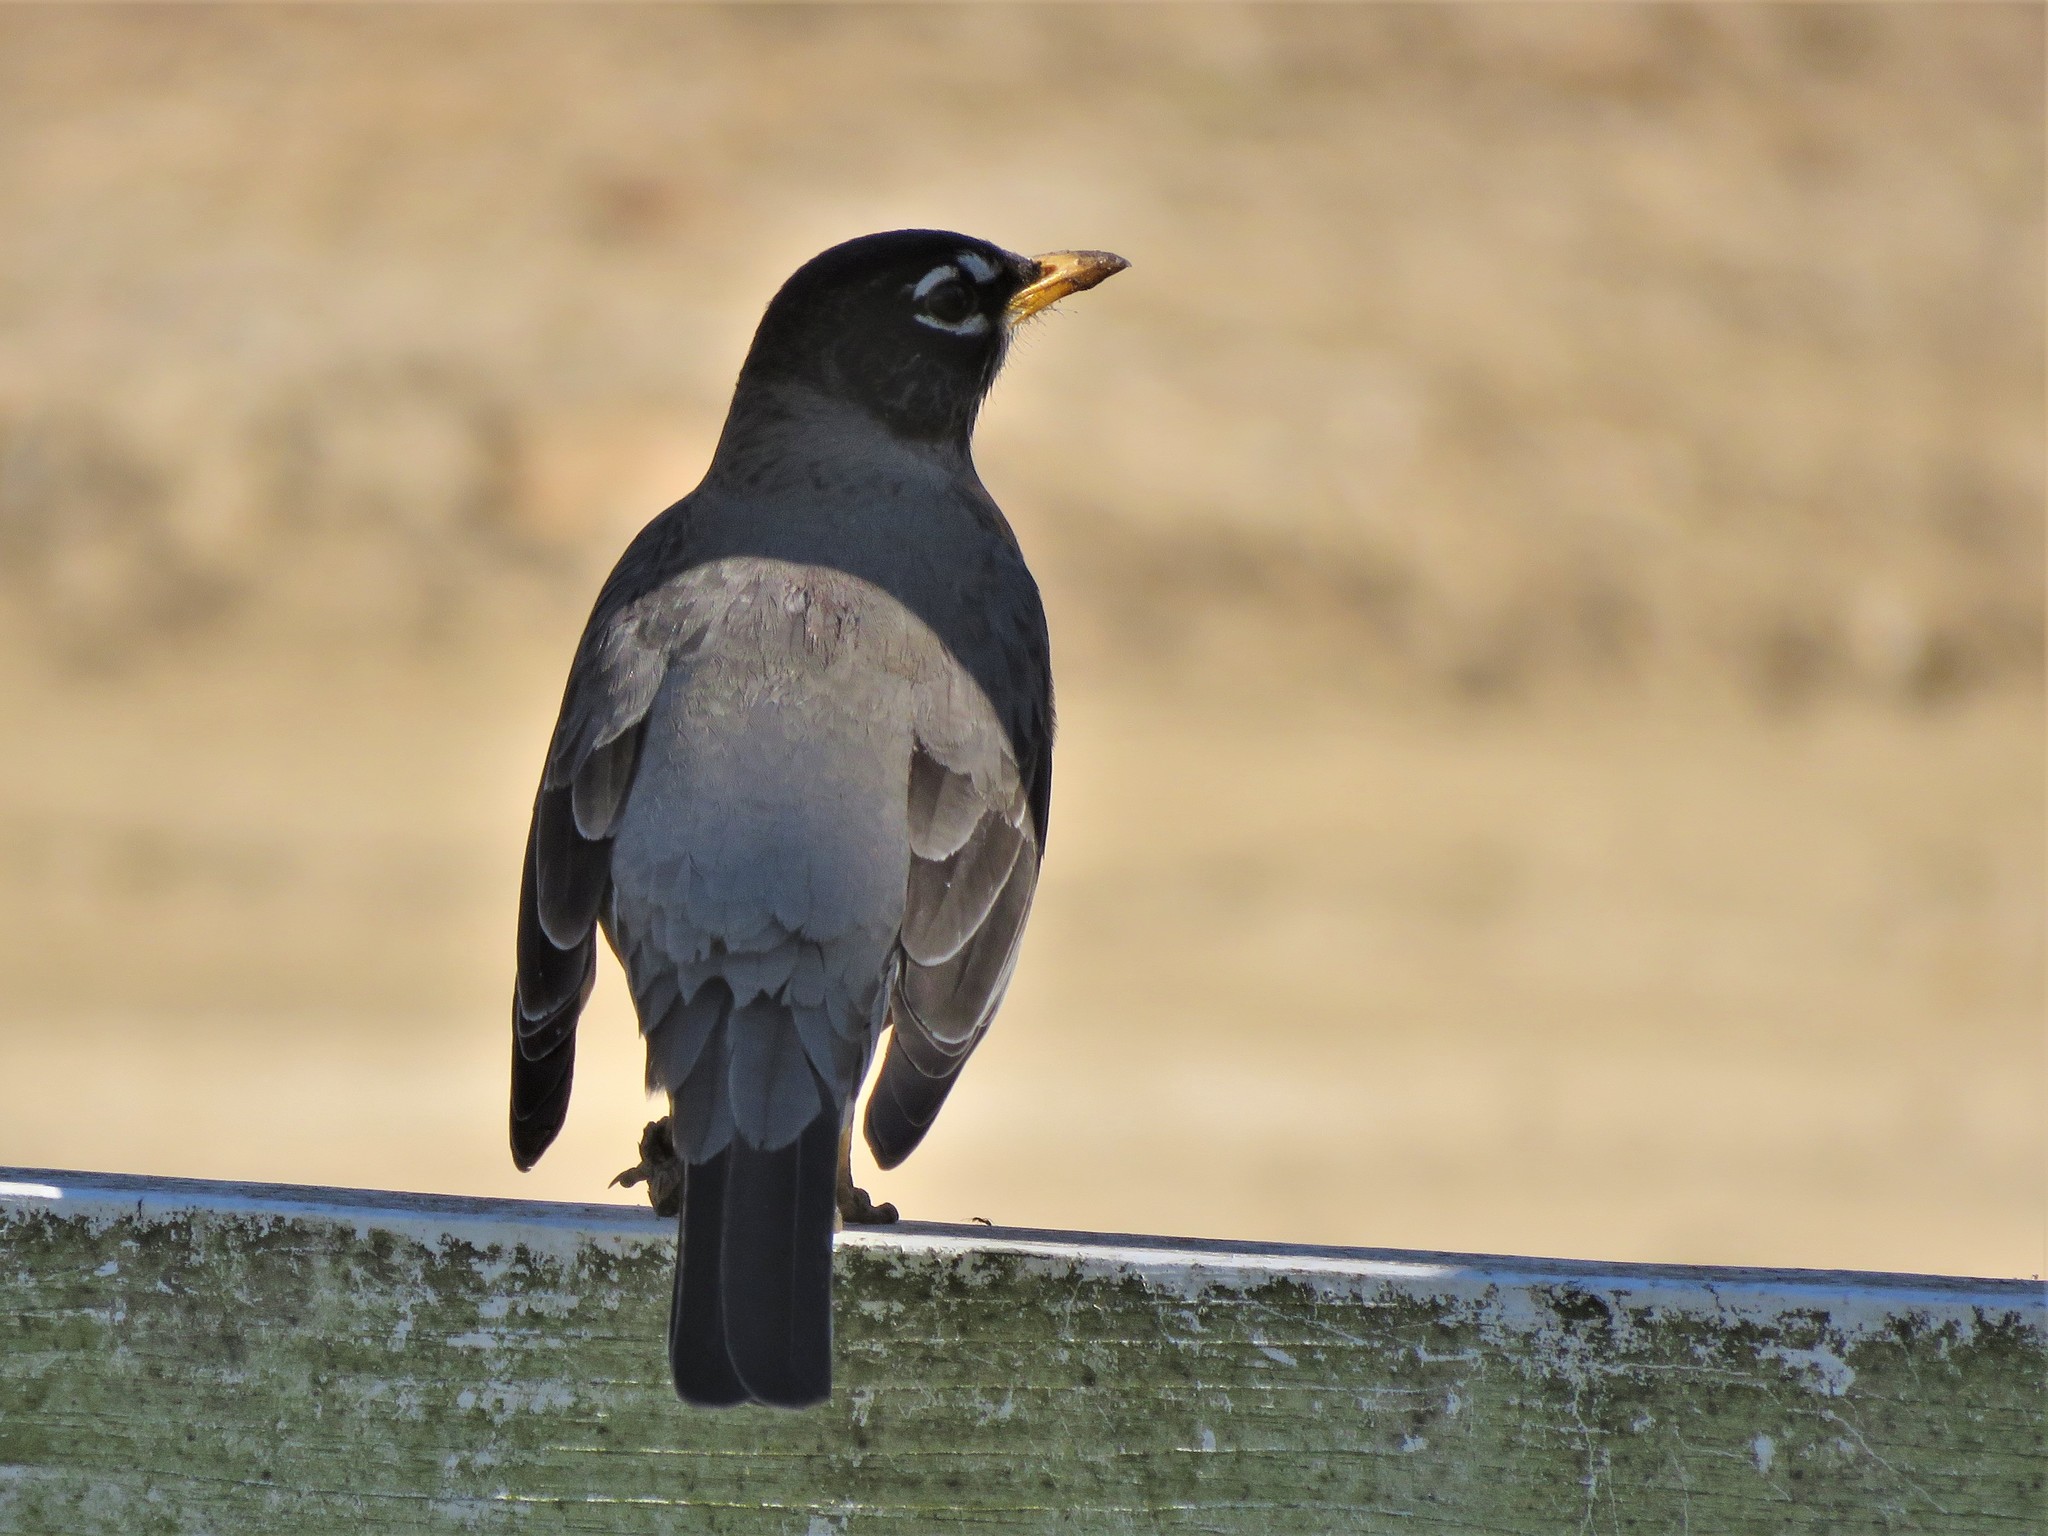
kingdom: Animalia
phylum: Chordata
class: Aves
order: Passeriformes
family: Turdidae
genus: Turdus
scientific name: Turdus migratorius
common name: American robin
